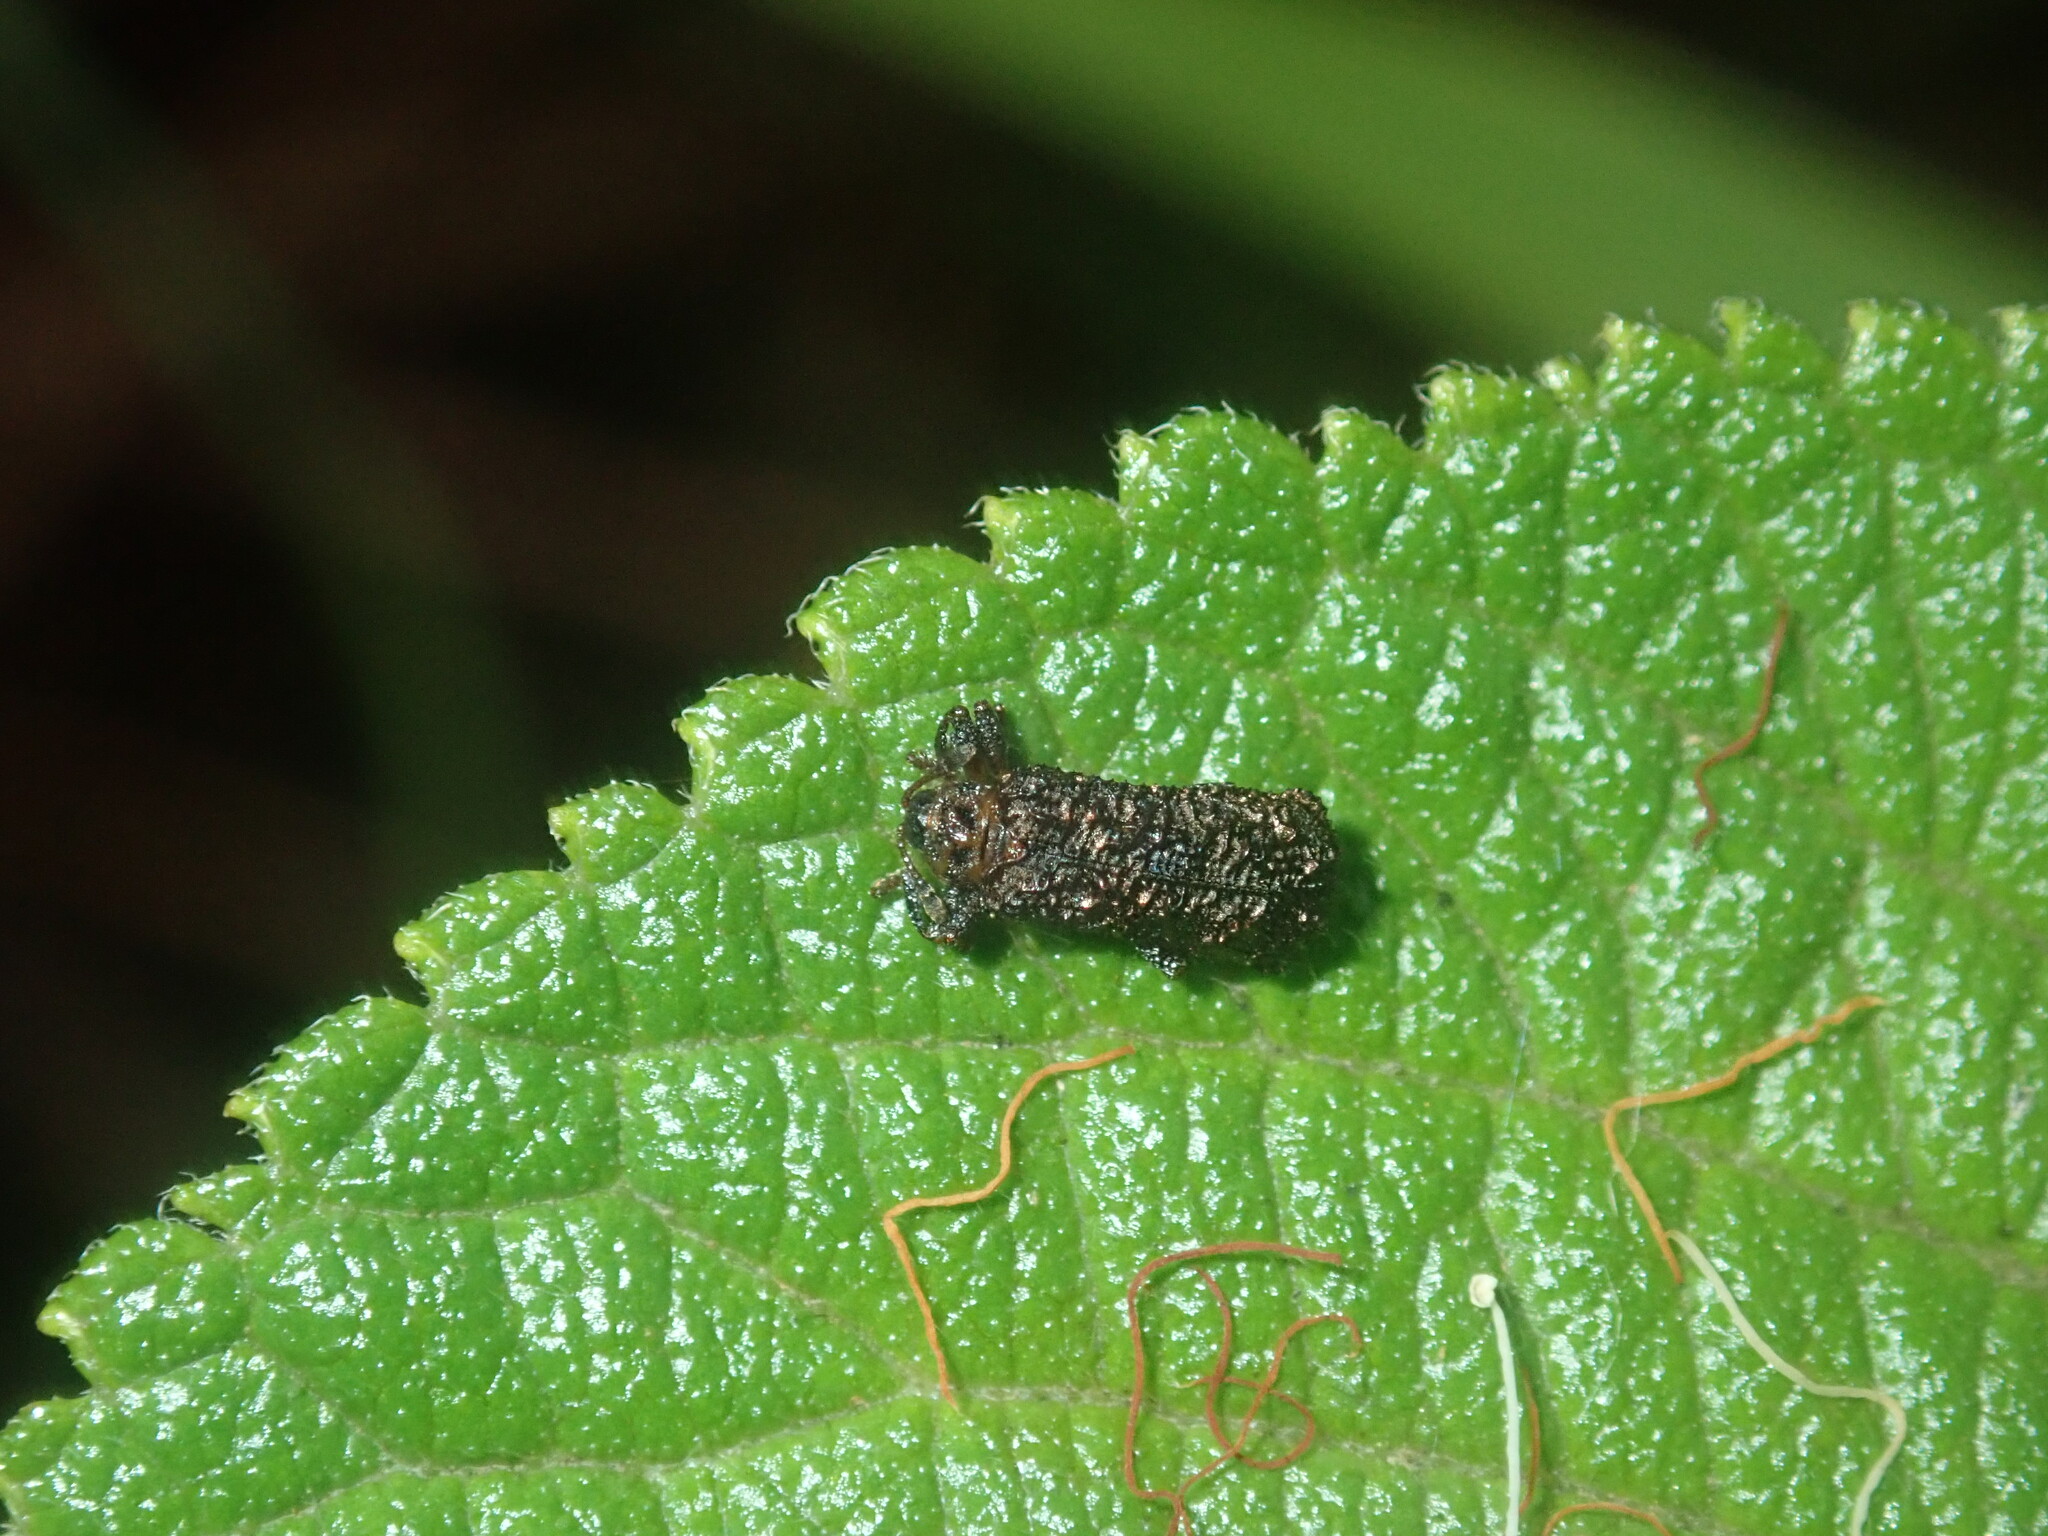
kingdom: Animalia
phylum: Arthropoda
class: Insecta
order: Coleoptera
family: Chrysomelidae
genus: Octotoma
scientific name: Octotoma scabripennis
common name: Beetle
